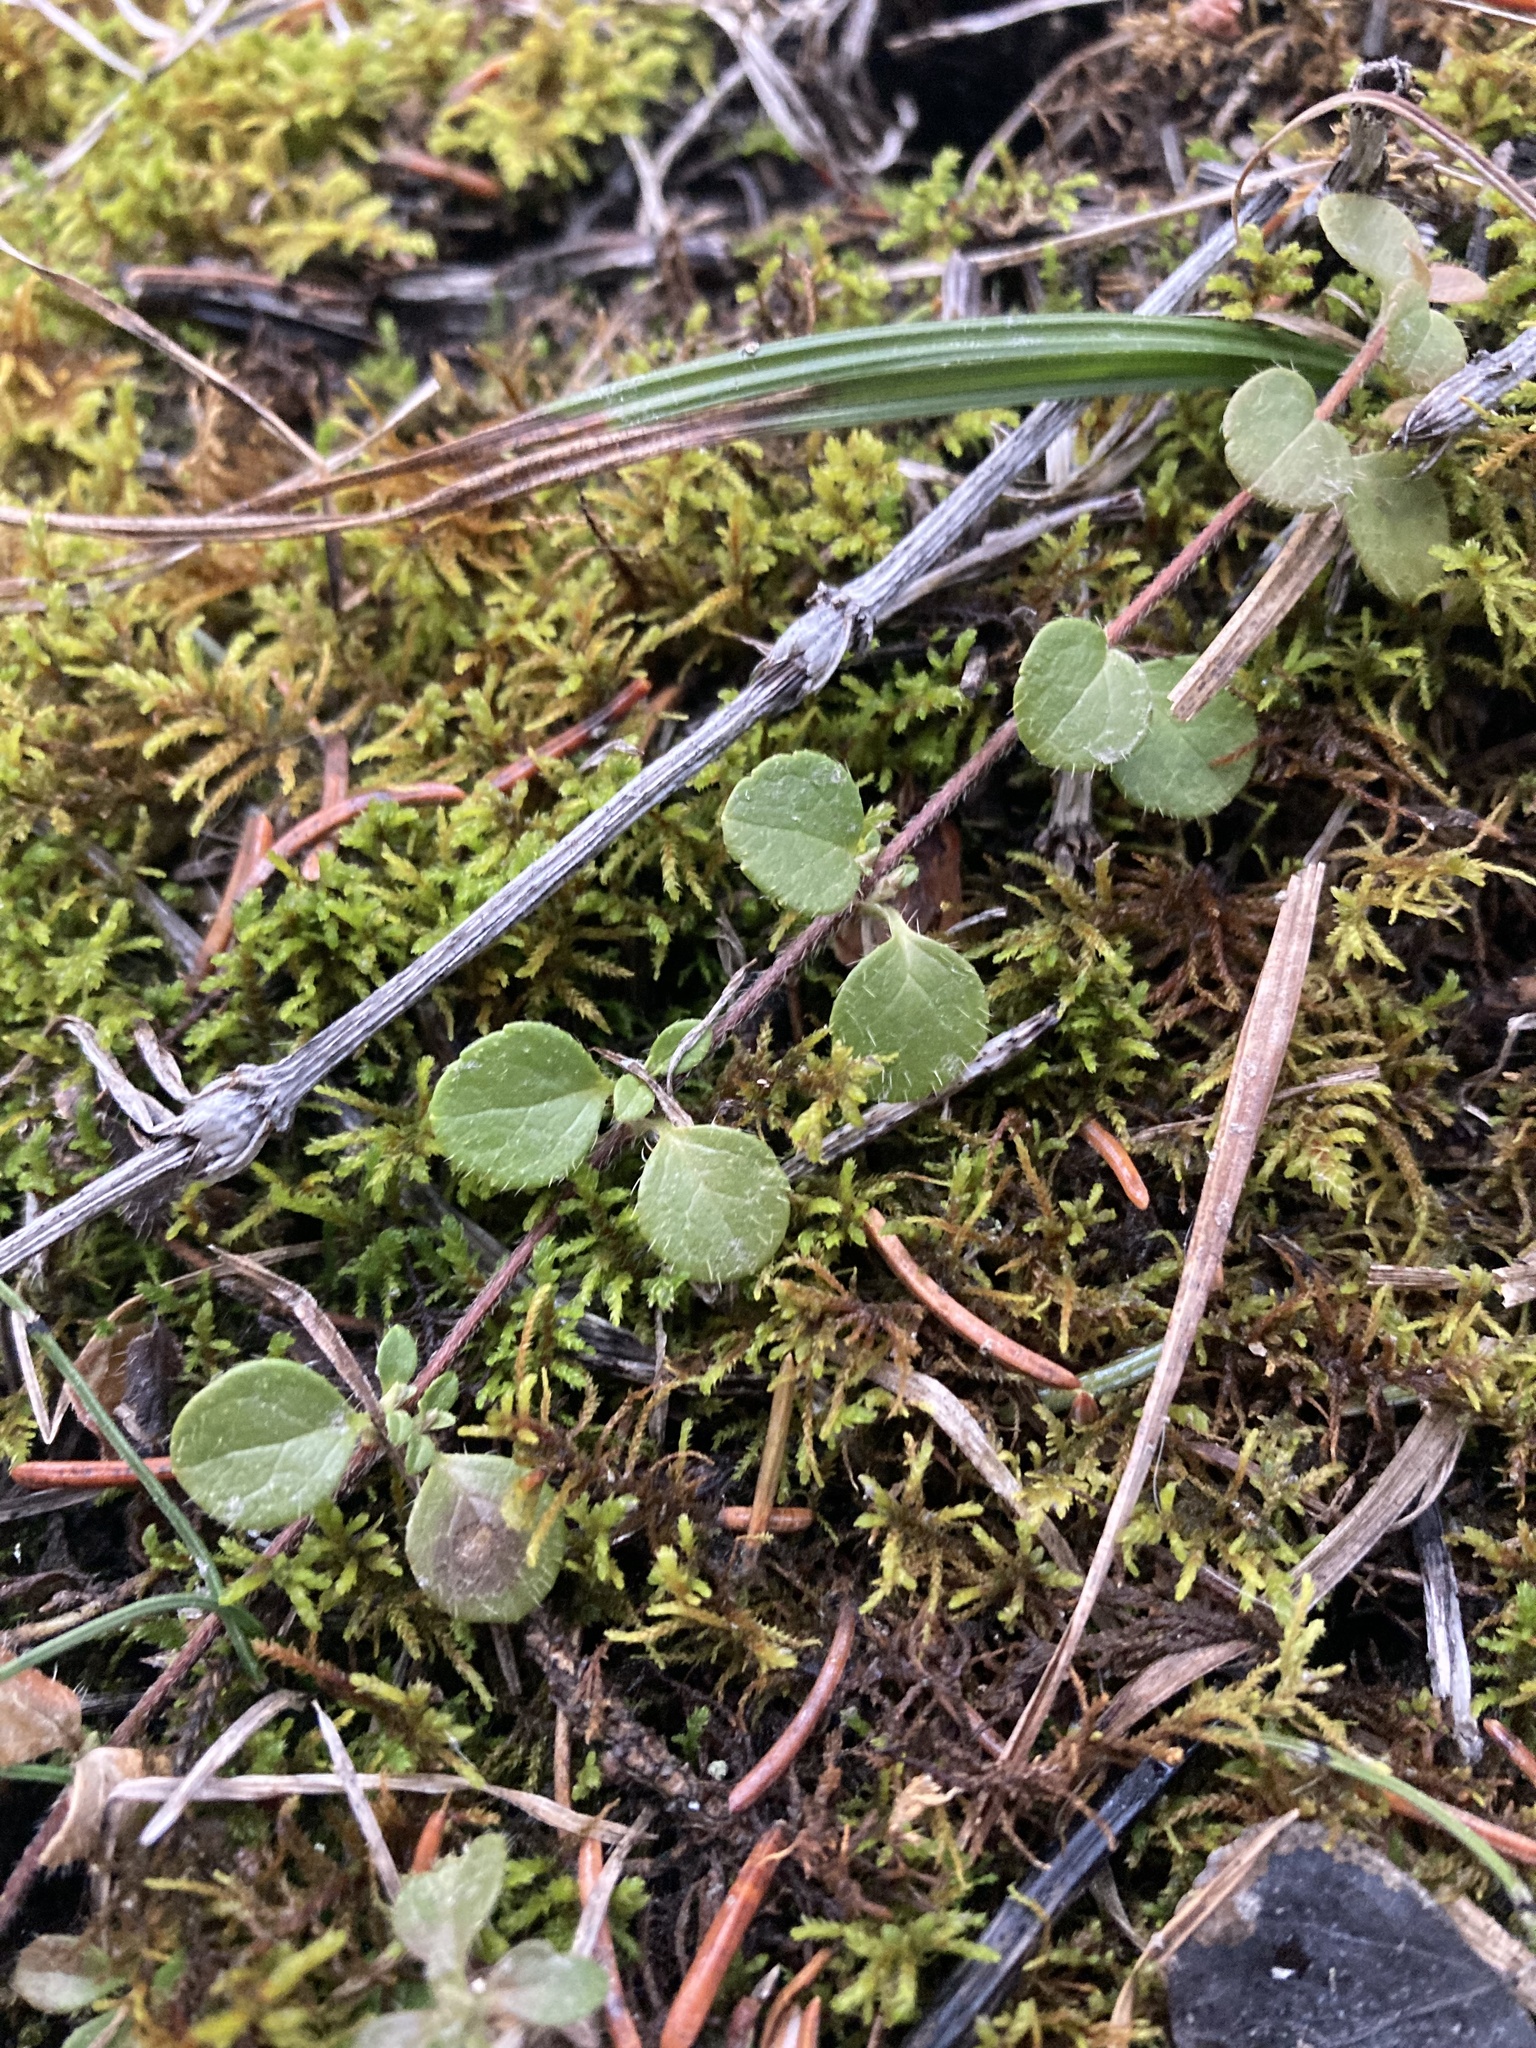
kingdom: Plantae
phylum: Tracheophyta
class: Magnoliopsida
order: Dipsacales
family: Caprifoliaceae
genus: Linnaea
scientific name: Linnaea borealis
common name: Twinflower
